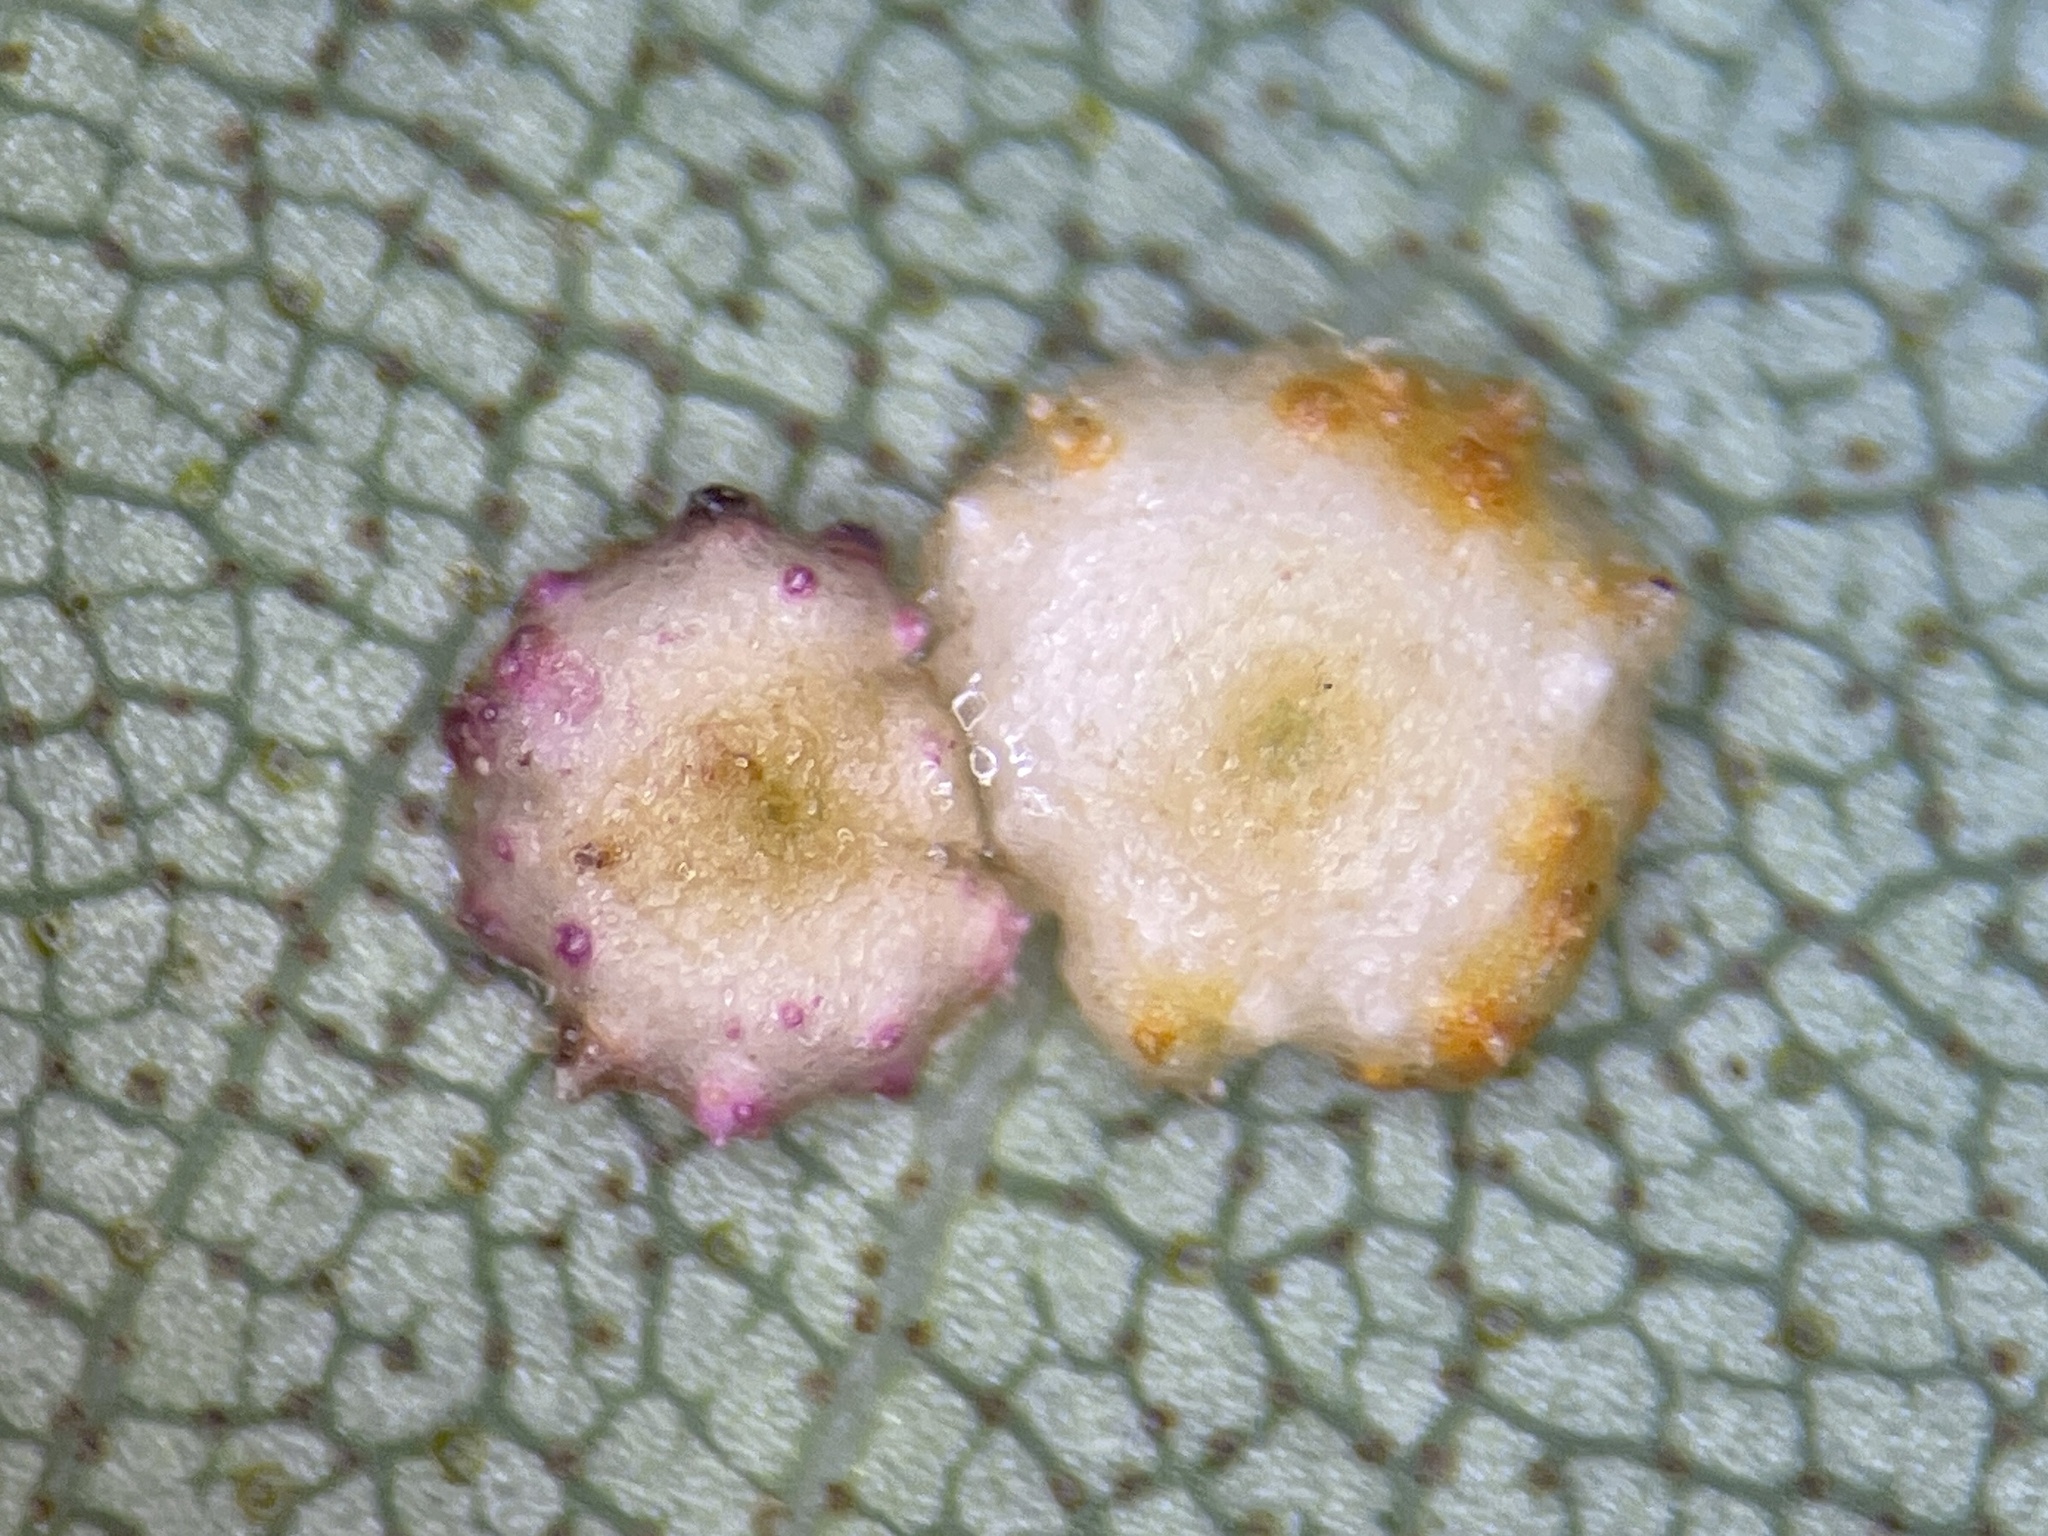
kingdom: Animalia
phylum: Arthropoda
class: Insecta
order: Diptera
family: Cecidomyiidae
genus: Caryomyia
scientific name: Caryomyia tuberculata
